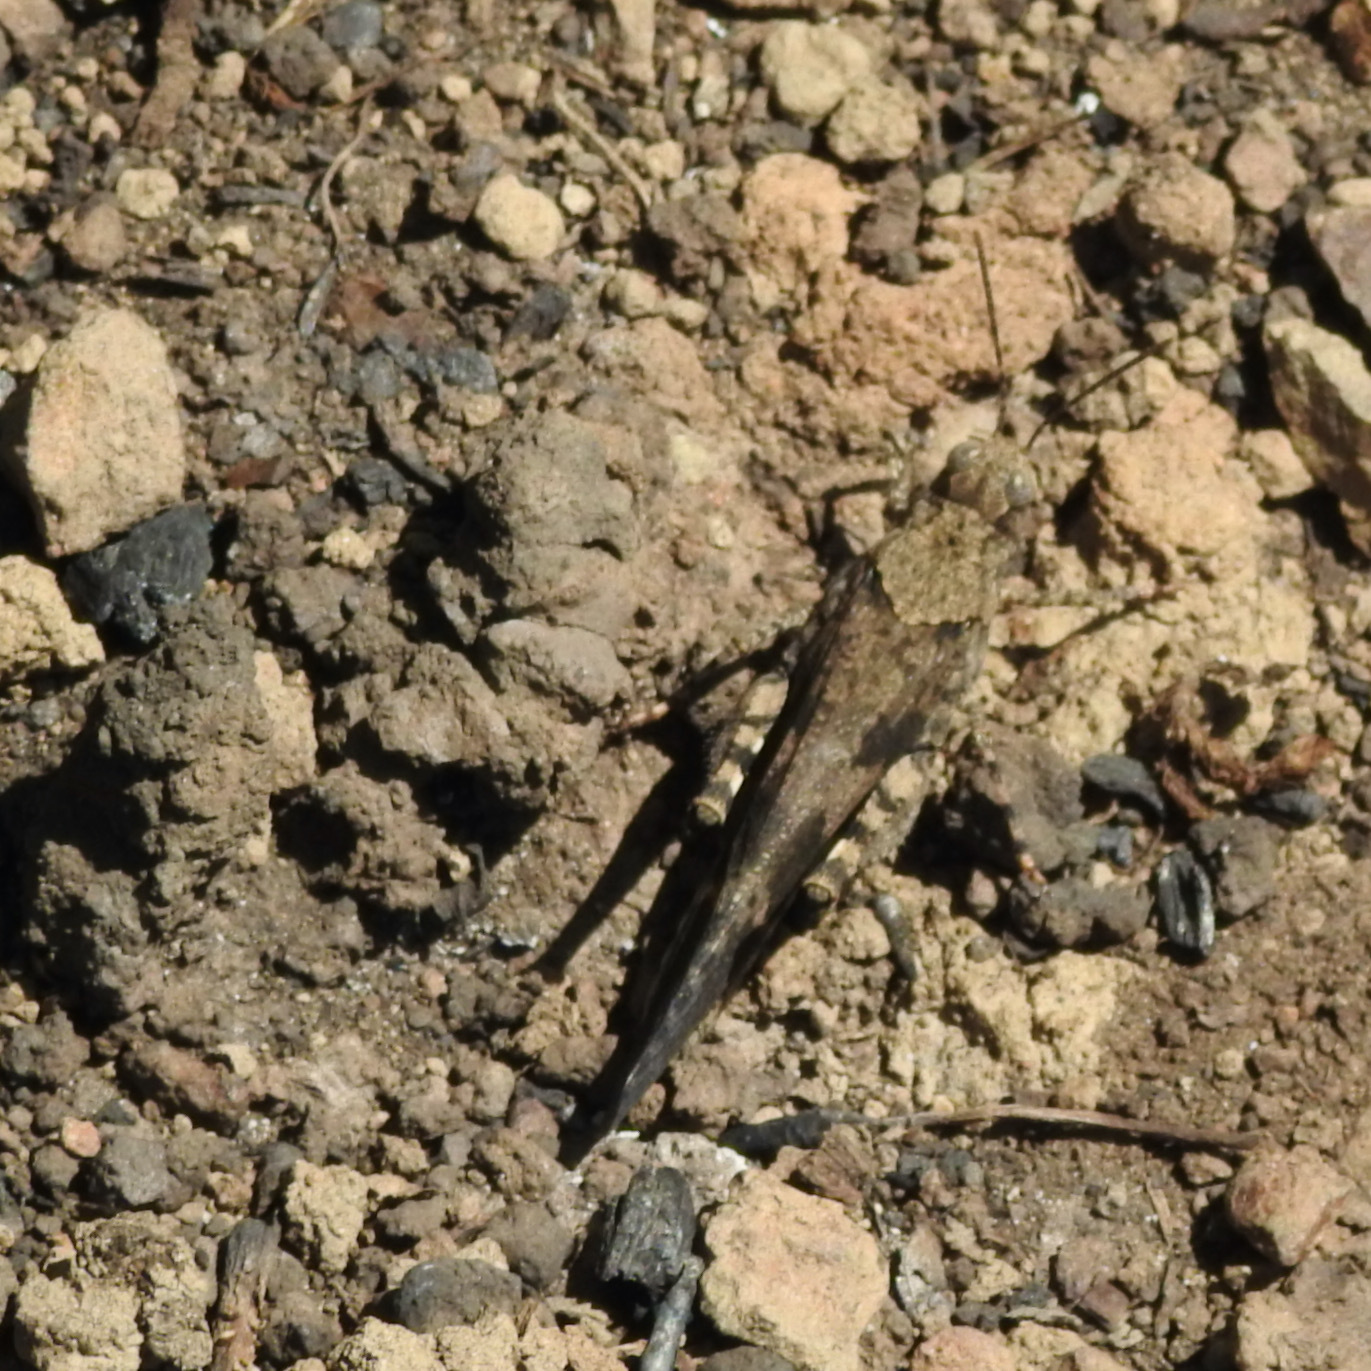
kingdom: Animalia
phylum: Arthropoda
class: Insecta
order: Orthoptera
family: Acrididae
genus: Trimerotropis
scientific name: Trimerotropis fontana
